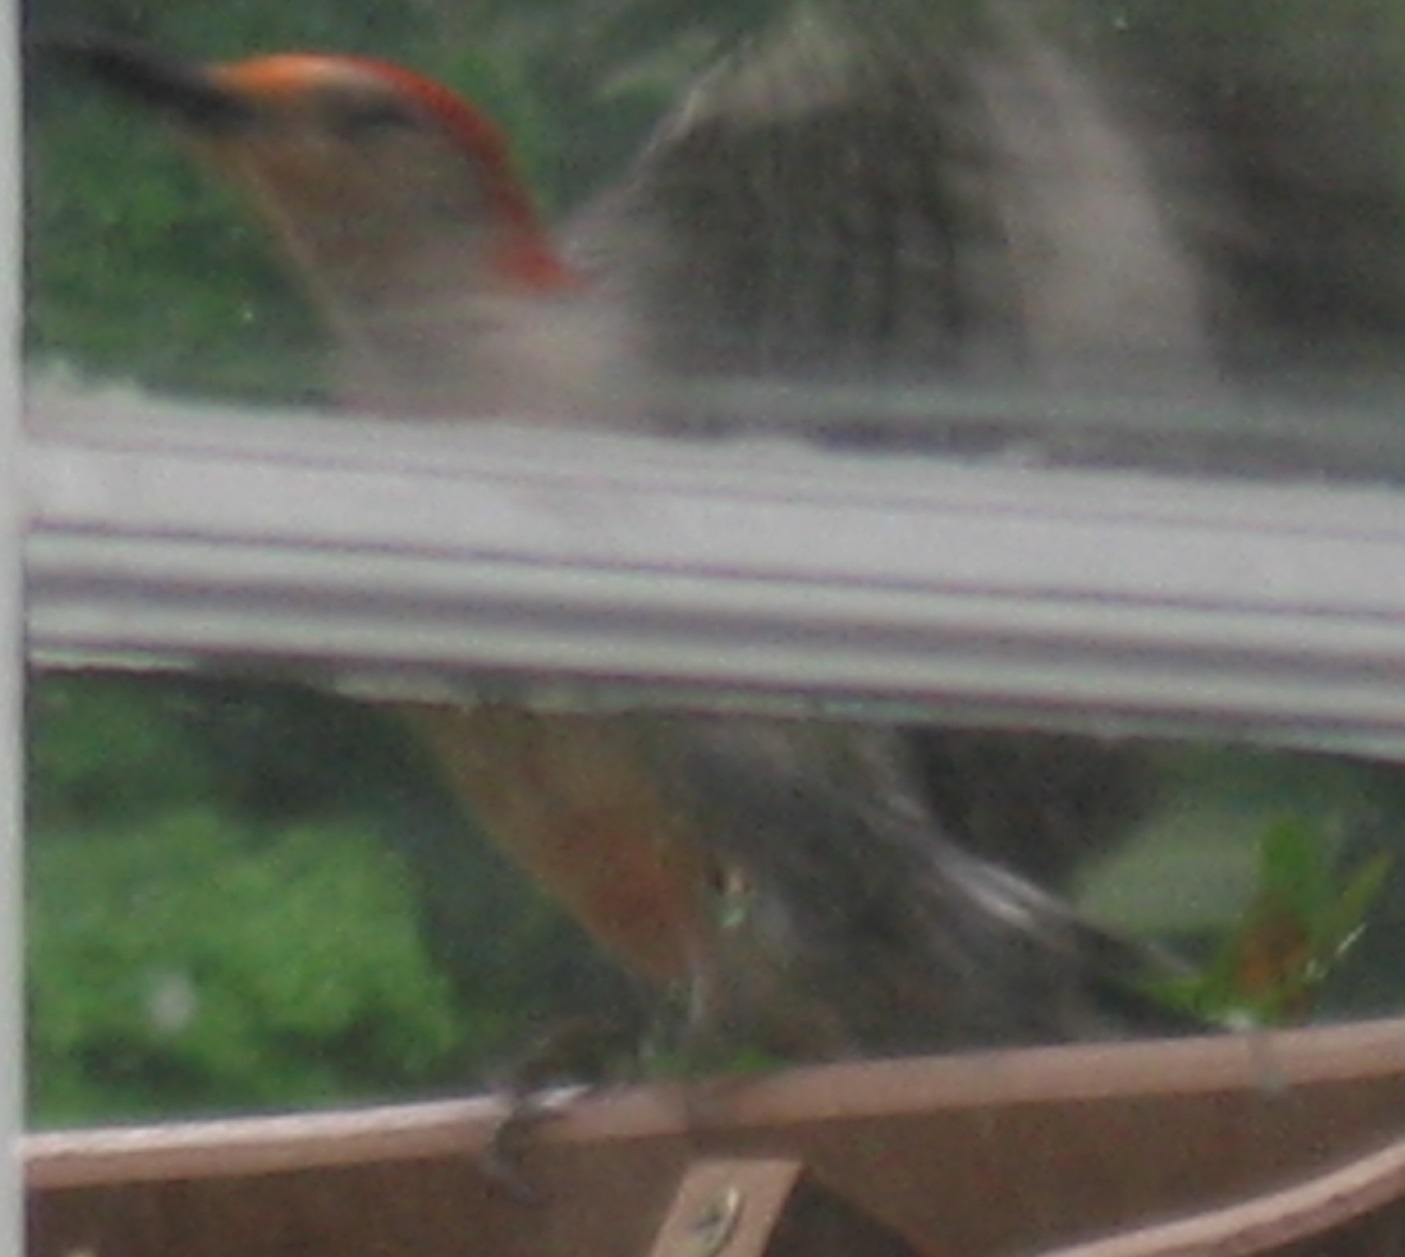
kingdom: Animalia
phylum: Chordata
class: Aves
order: Piciformes
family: Picidae
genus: Melanerpes
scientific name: Melanerpes carolinus
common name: Red-bellied woodpecker
